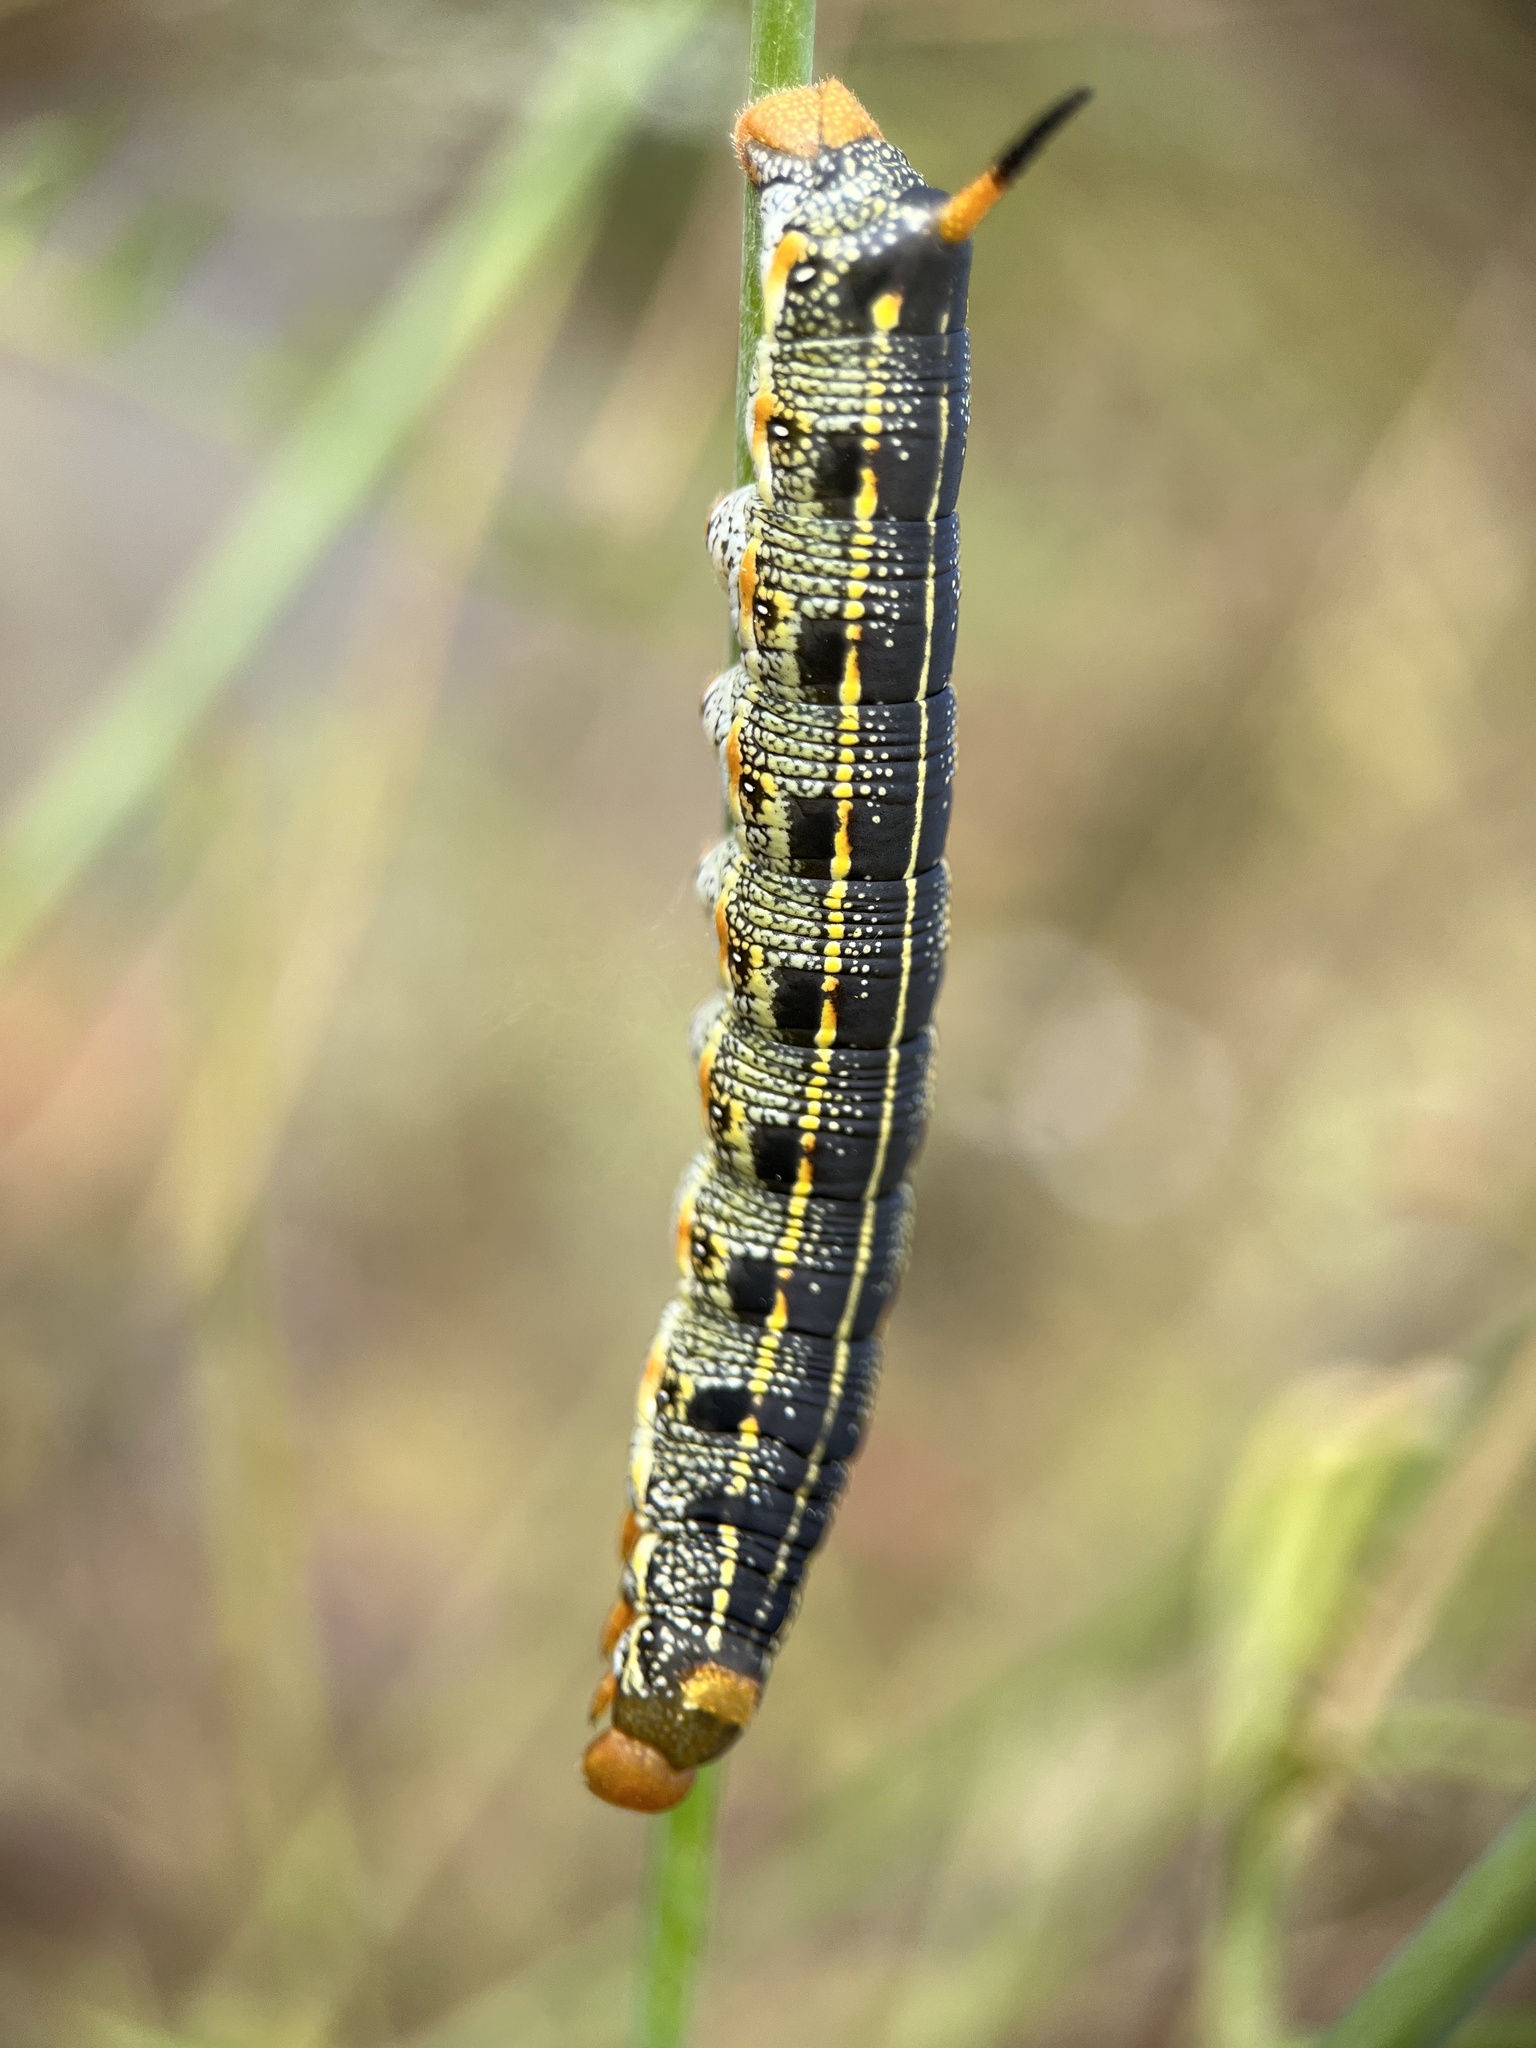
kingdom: Animalia
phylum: Arthropoda
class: Insecta
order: Lepidoptera
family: Sphingidae
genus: Hyles
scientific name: Hyles lineata
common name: White-lined sphinx
